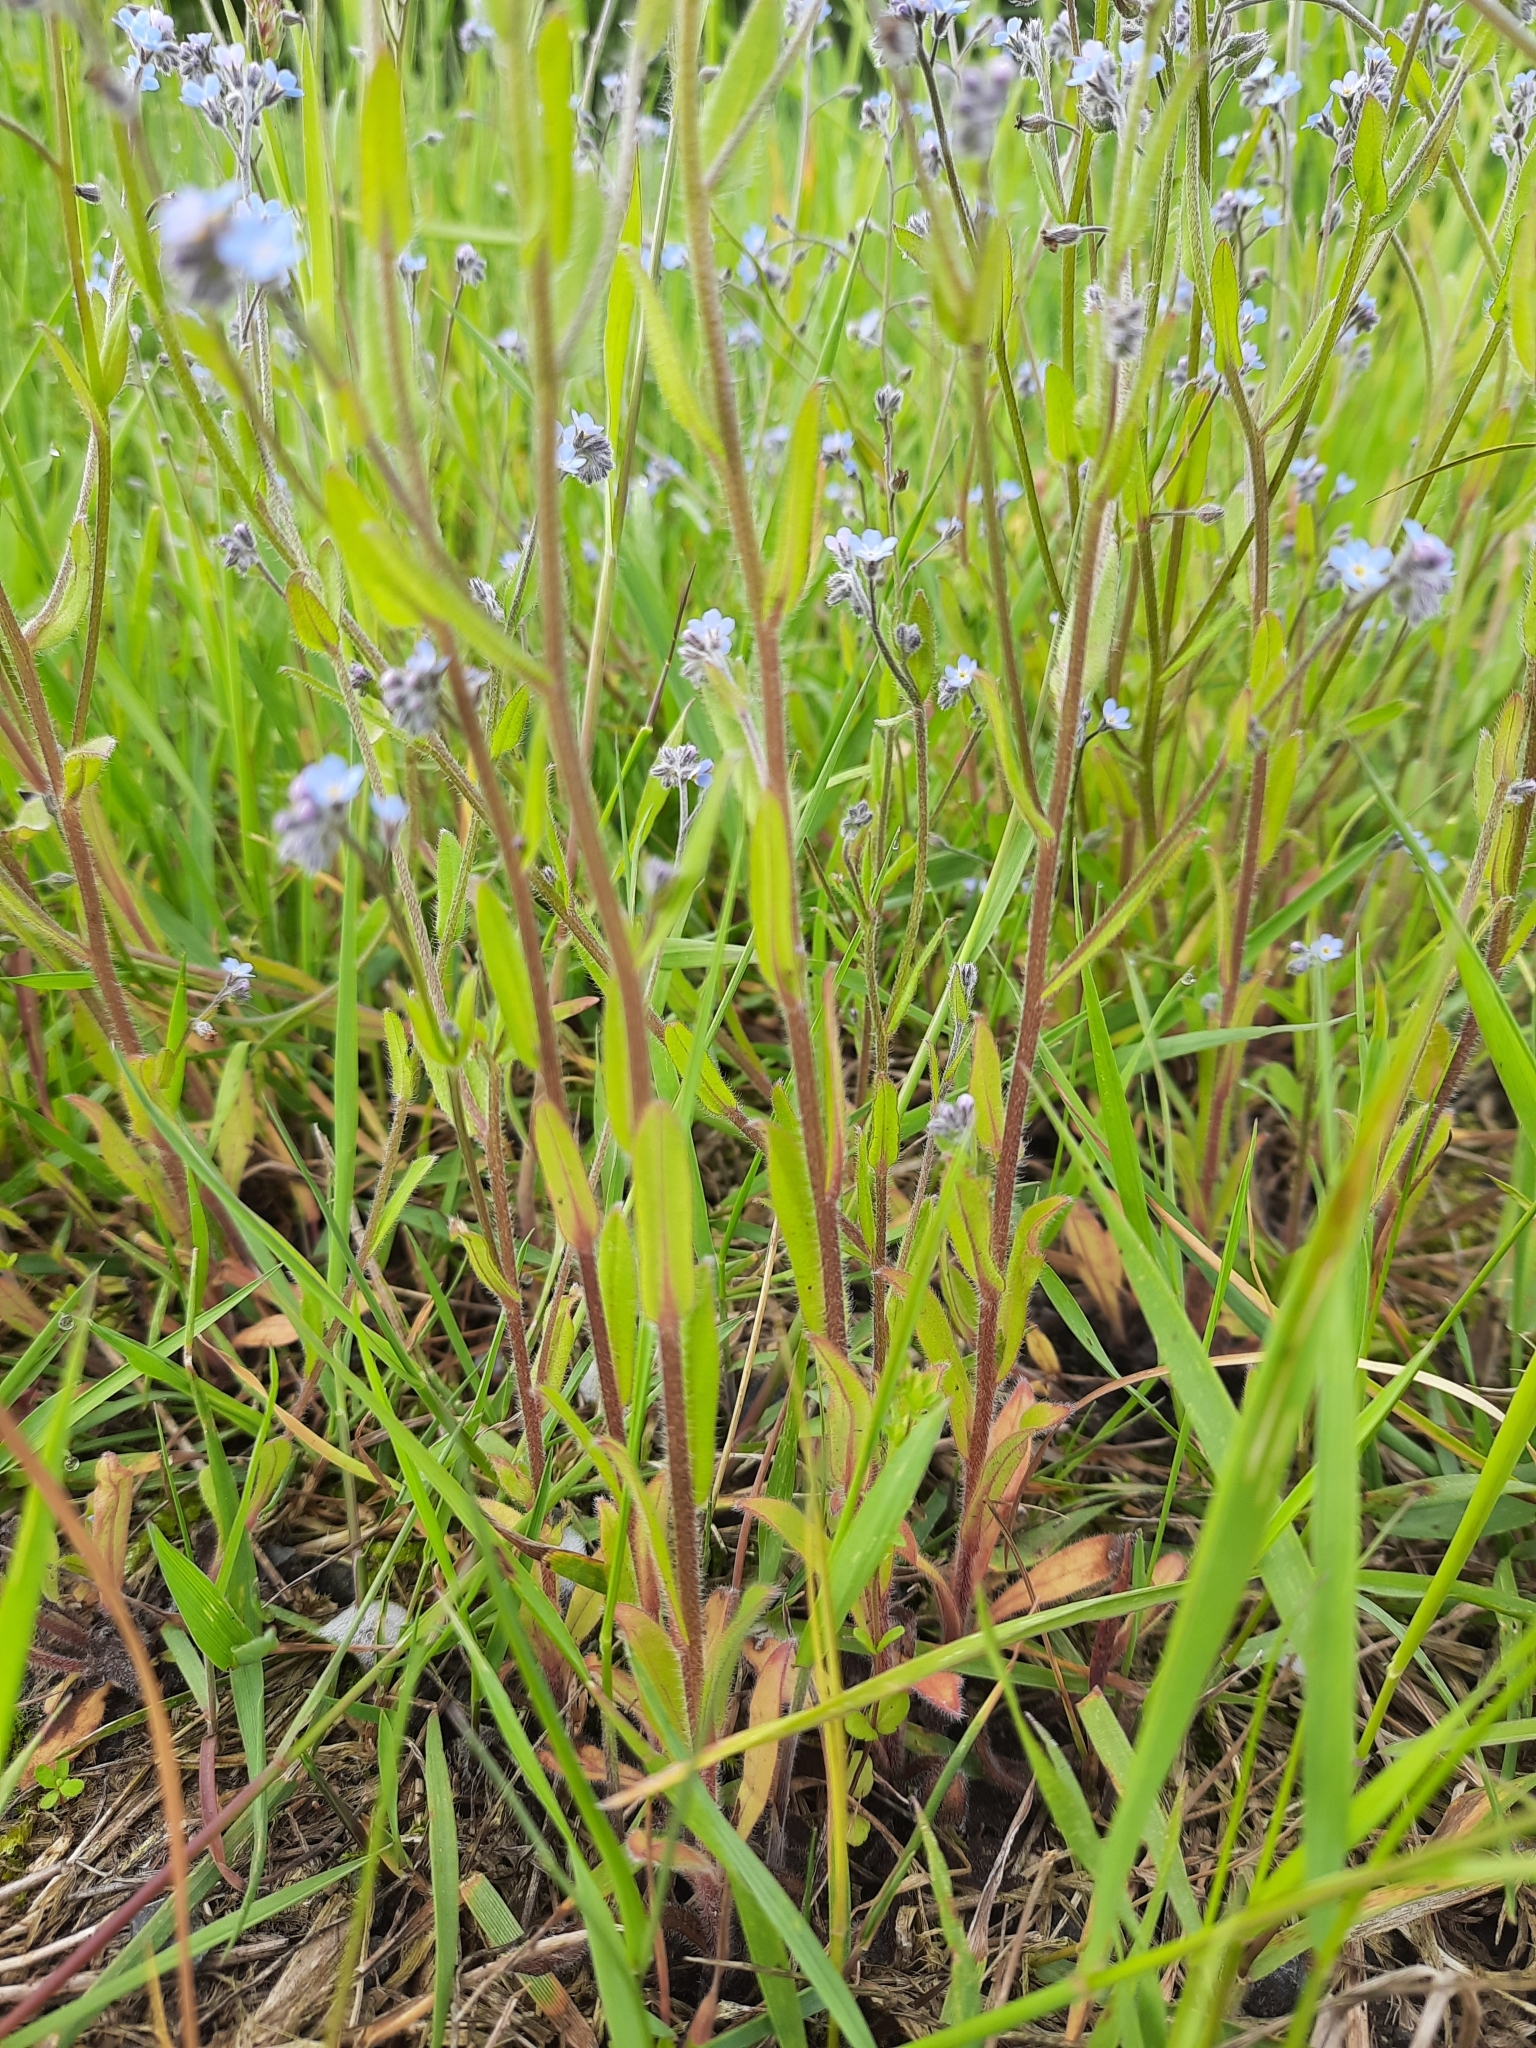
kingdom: Plantae
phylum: Tracheophyta
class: Magnoliopsida
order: Boraginales
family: Boraginaceae
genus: Myosotis
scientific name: Myosotis arvensis
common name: Field forget-me-not
